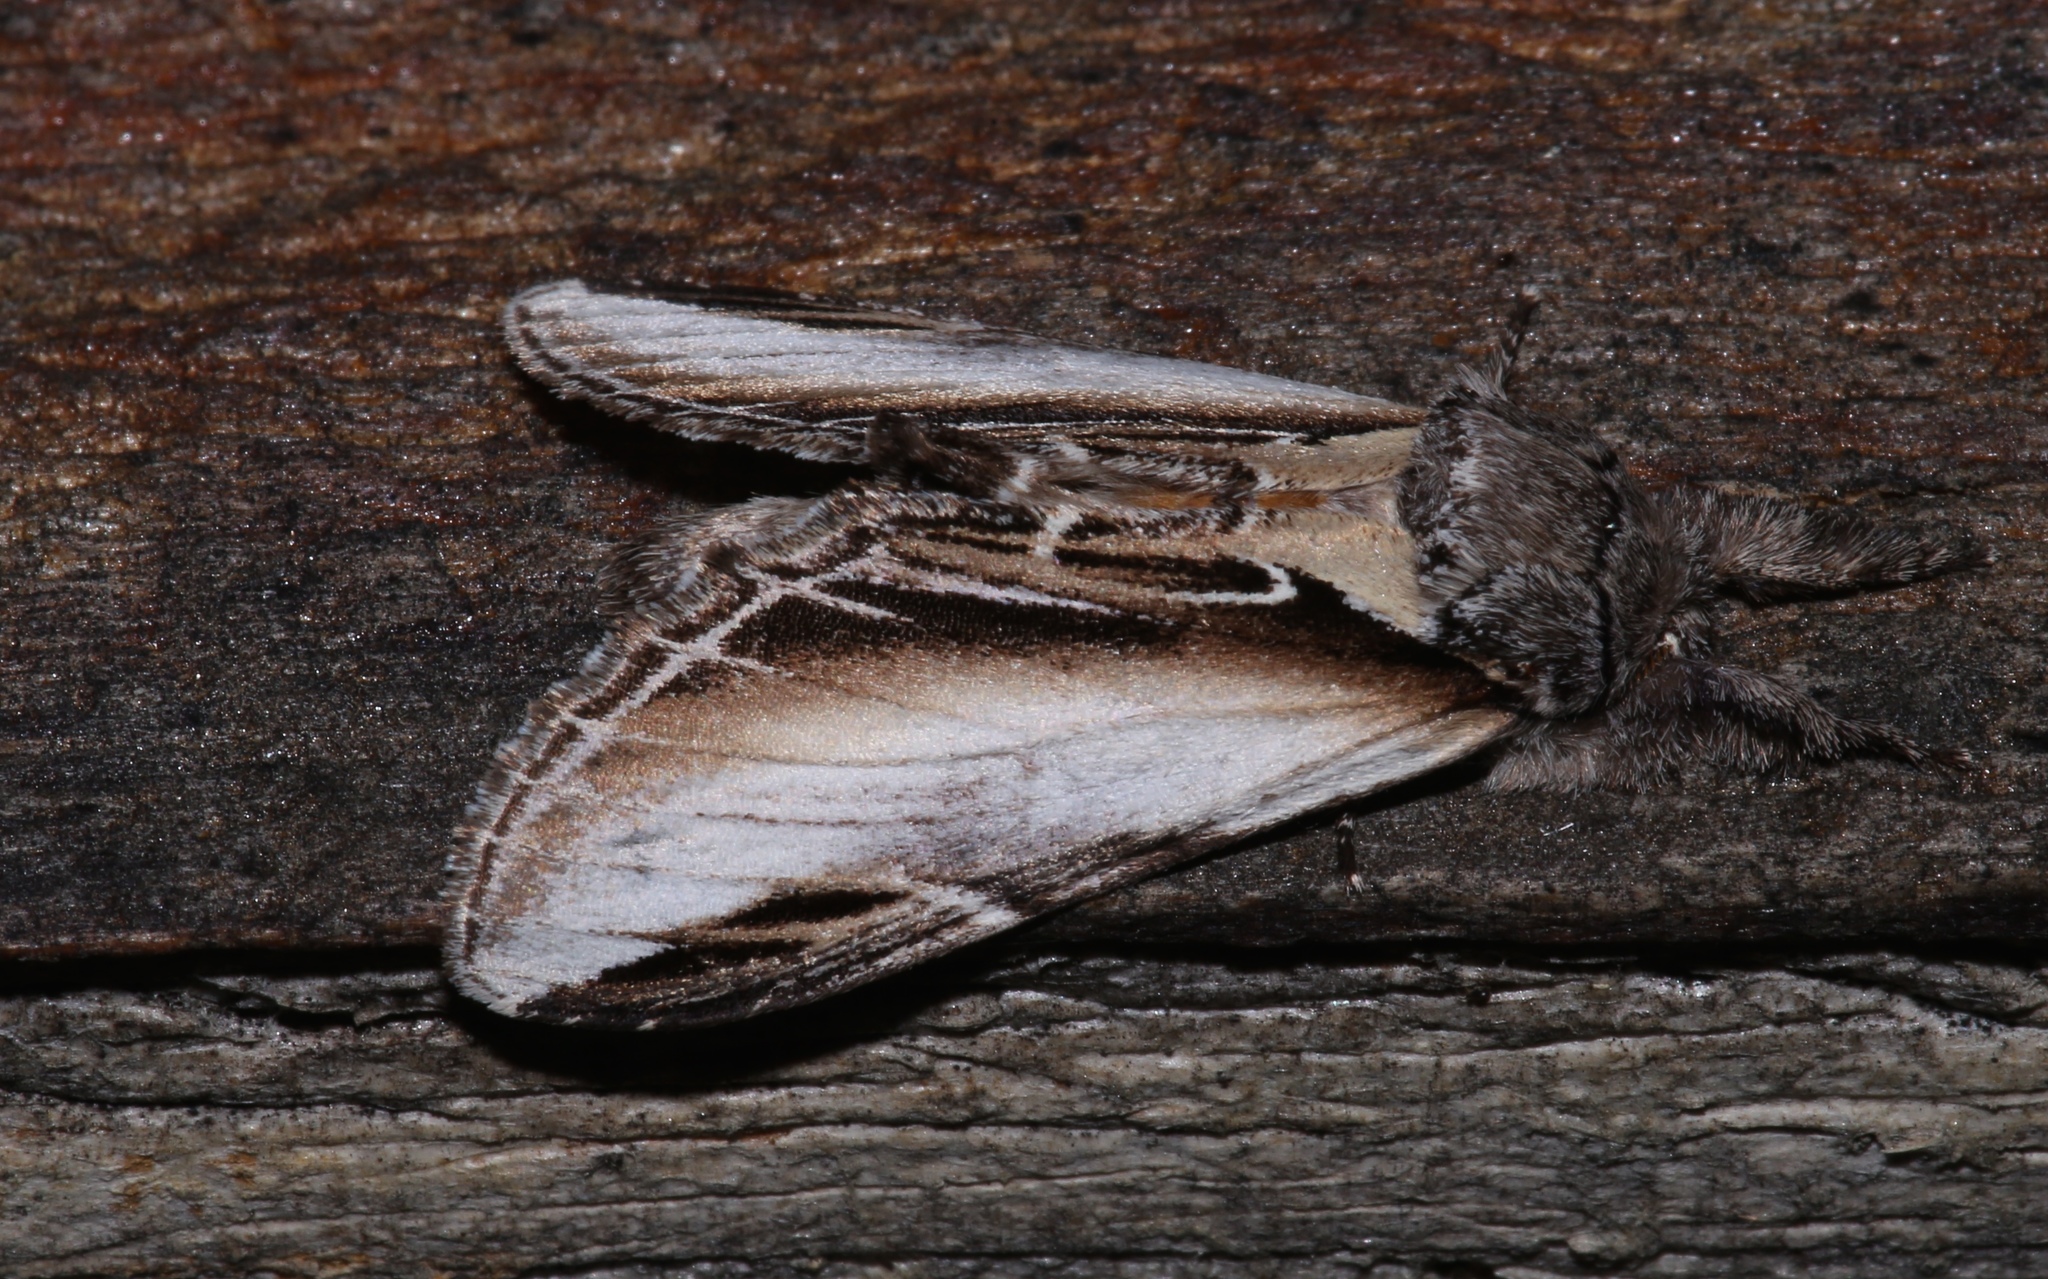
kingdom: Animalia
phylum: Arthropoda
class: Insecta
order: Lepidoptera
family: Notodontidae
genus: Pheosia
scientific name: Pheosia rimosa
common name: Black-rimmed prominent
